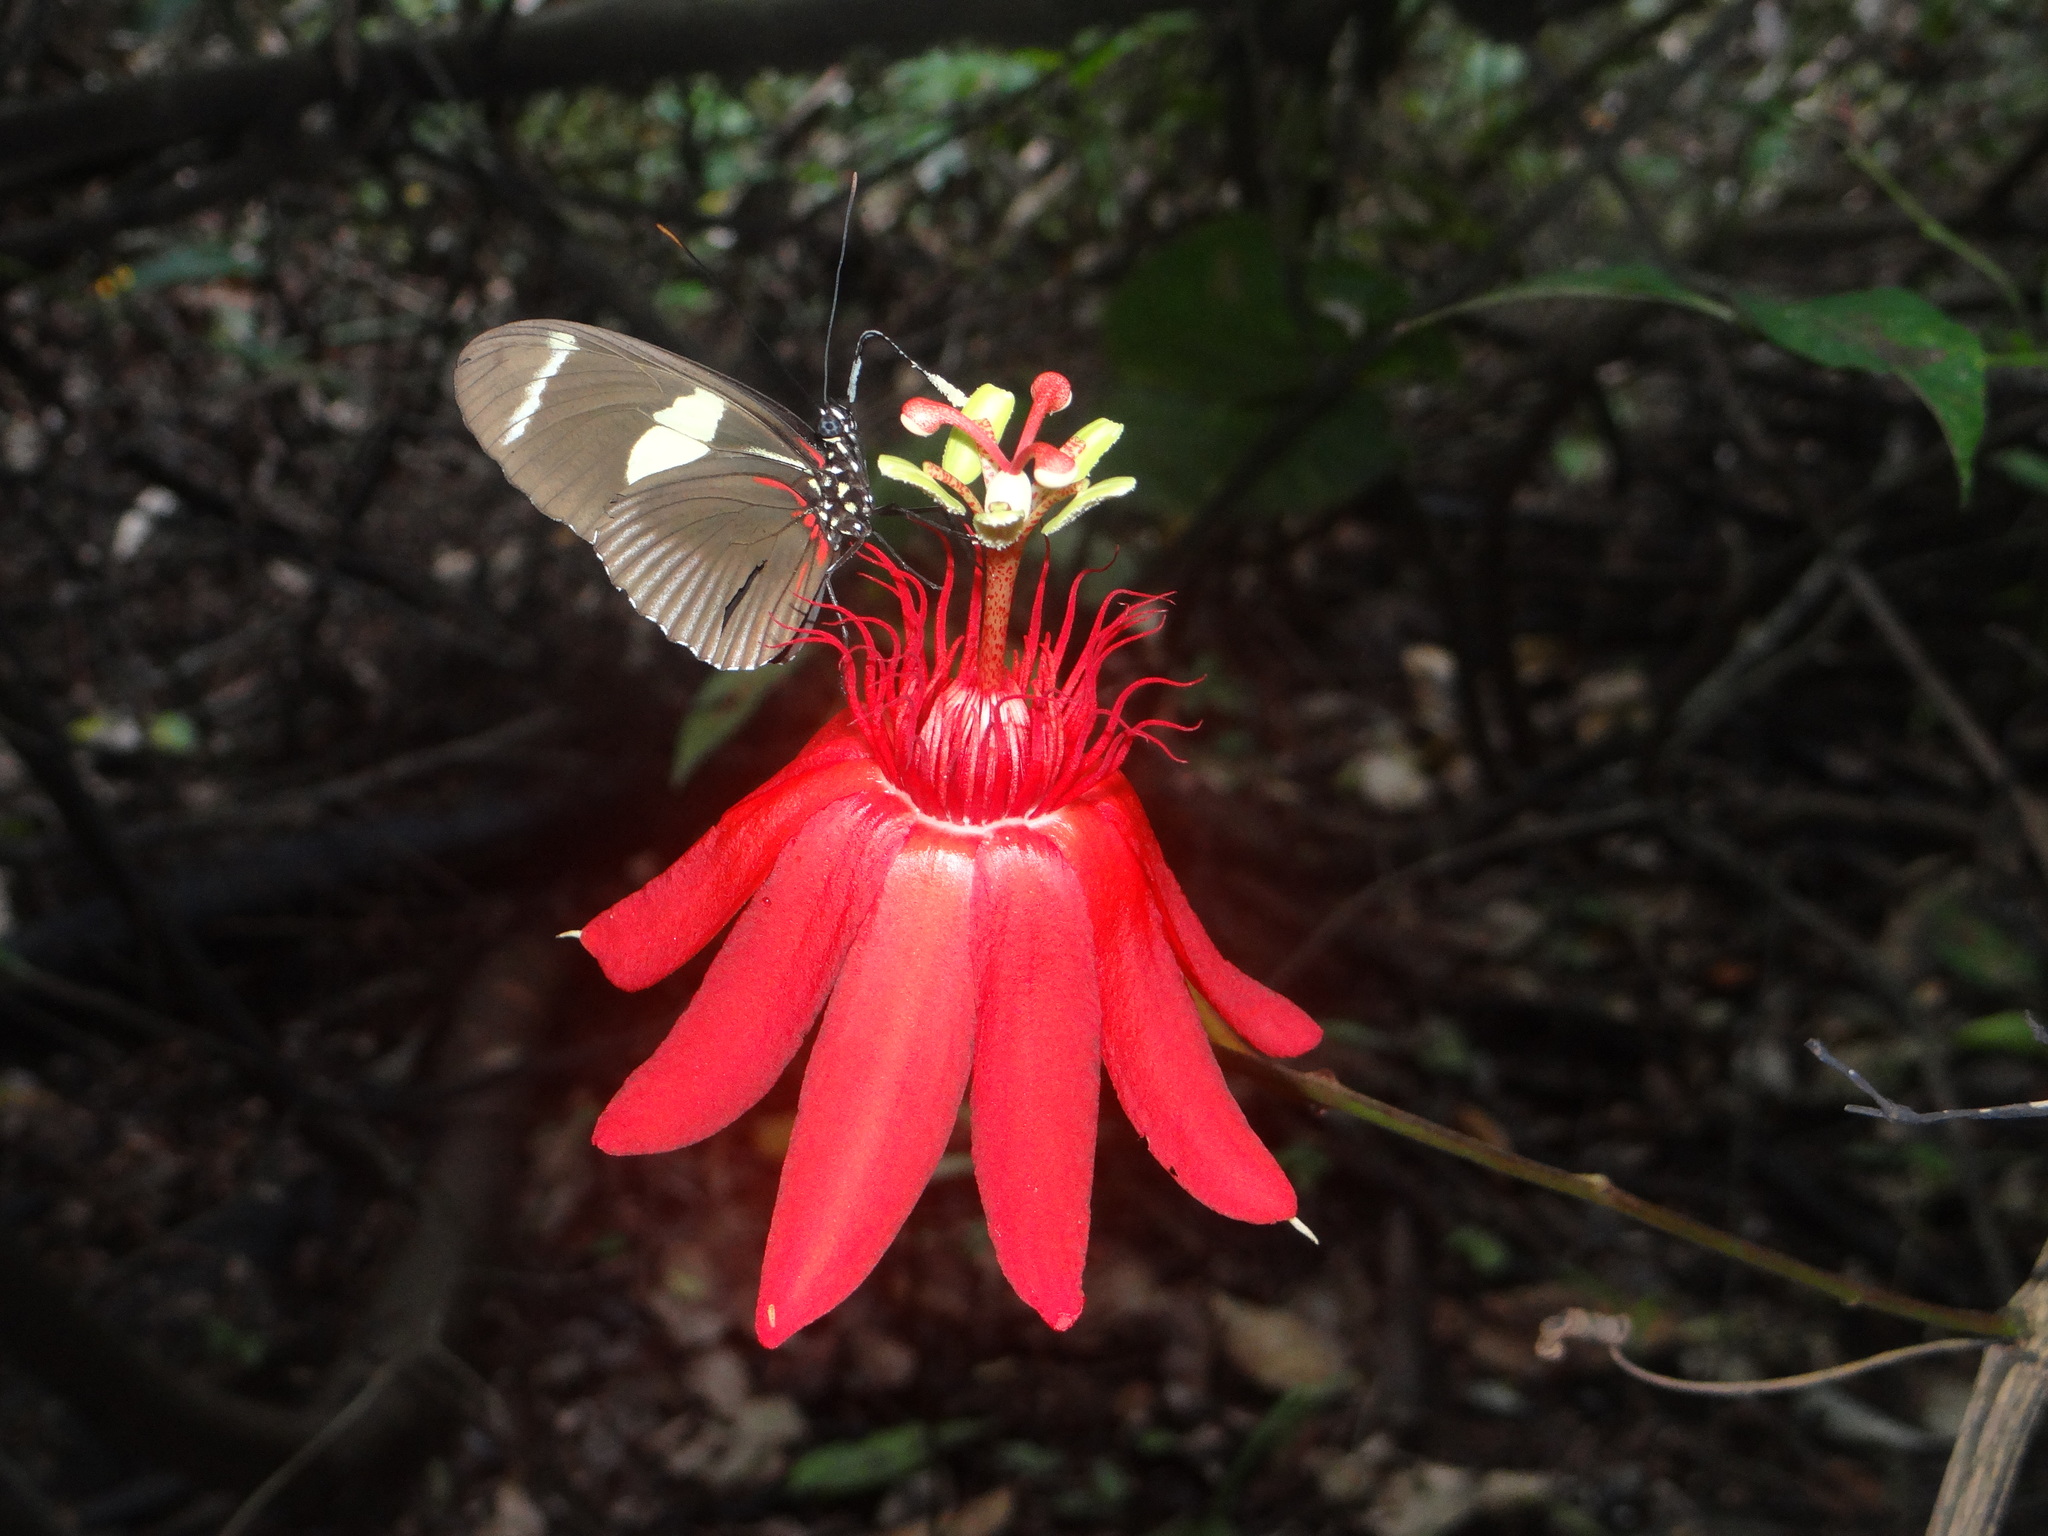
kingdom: Plantae
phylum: Tracheophyta
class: Magnoliopsida
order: Malpighiales
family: Passifloraceae
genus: Passiflora
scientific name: Passiflora quadriglandulosa
